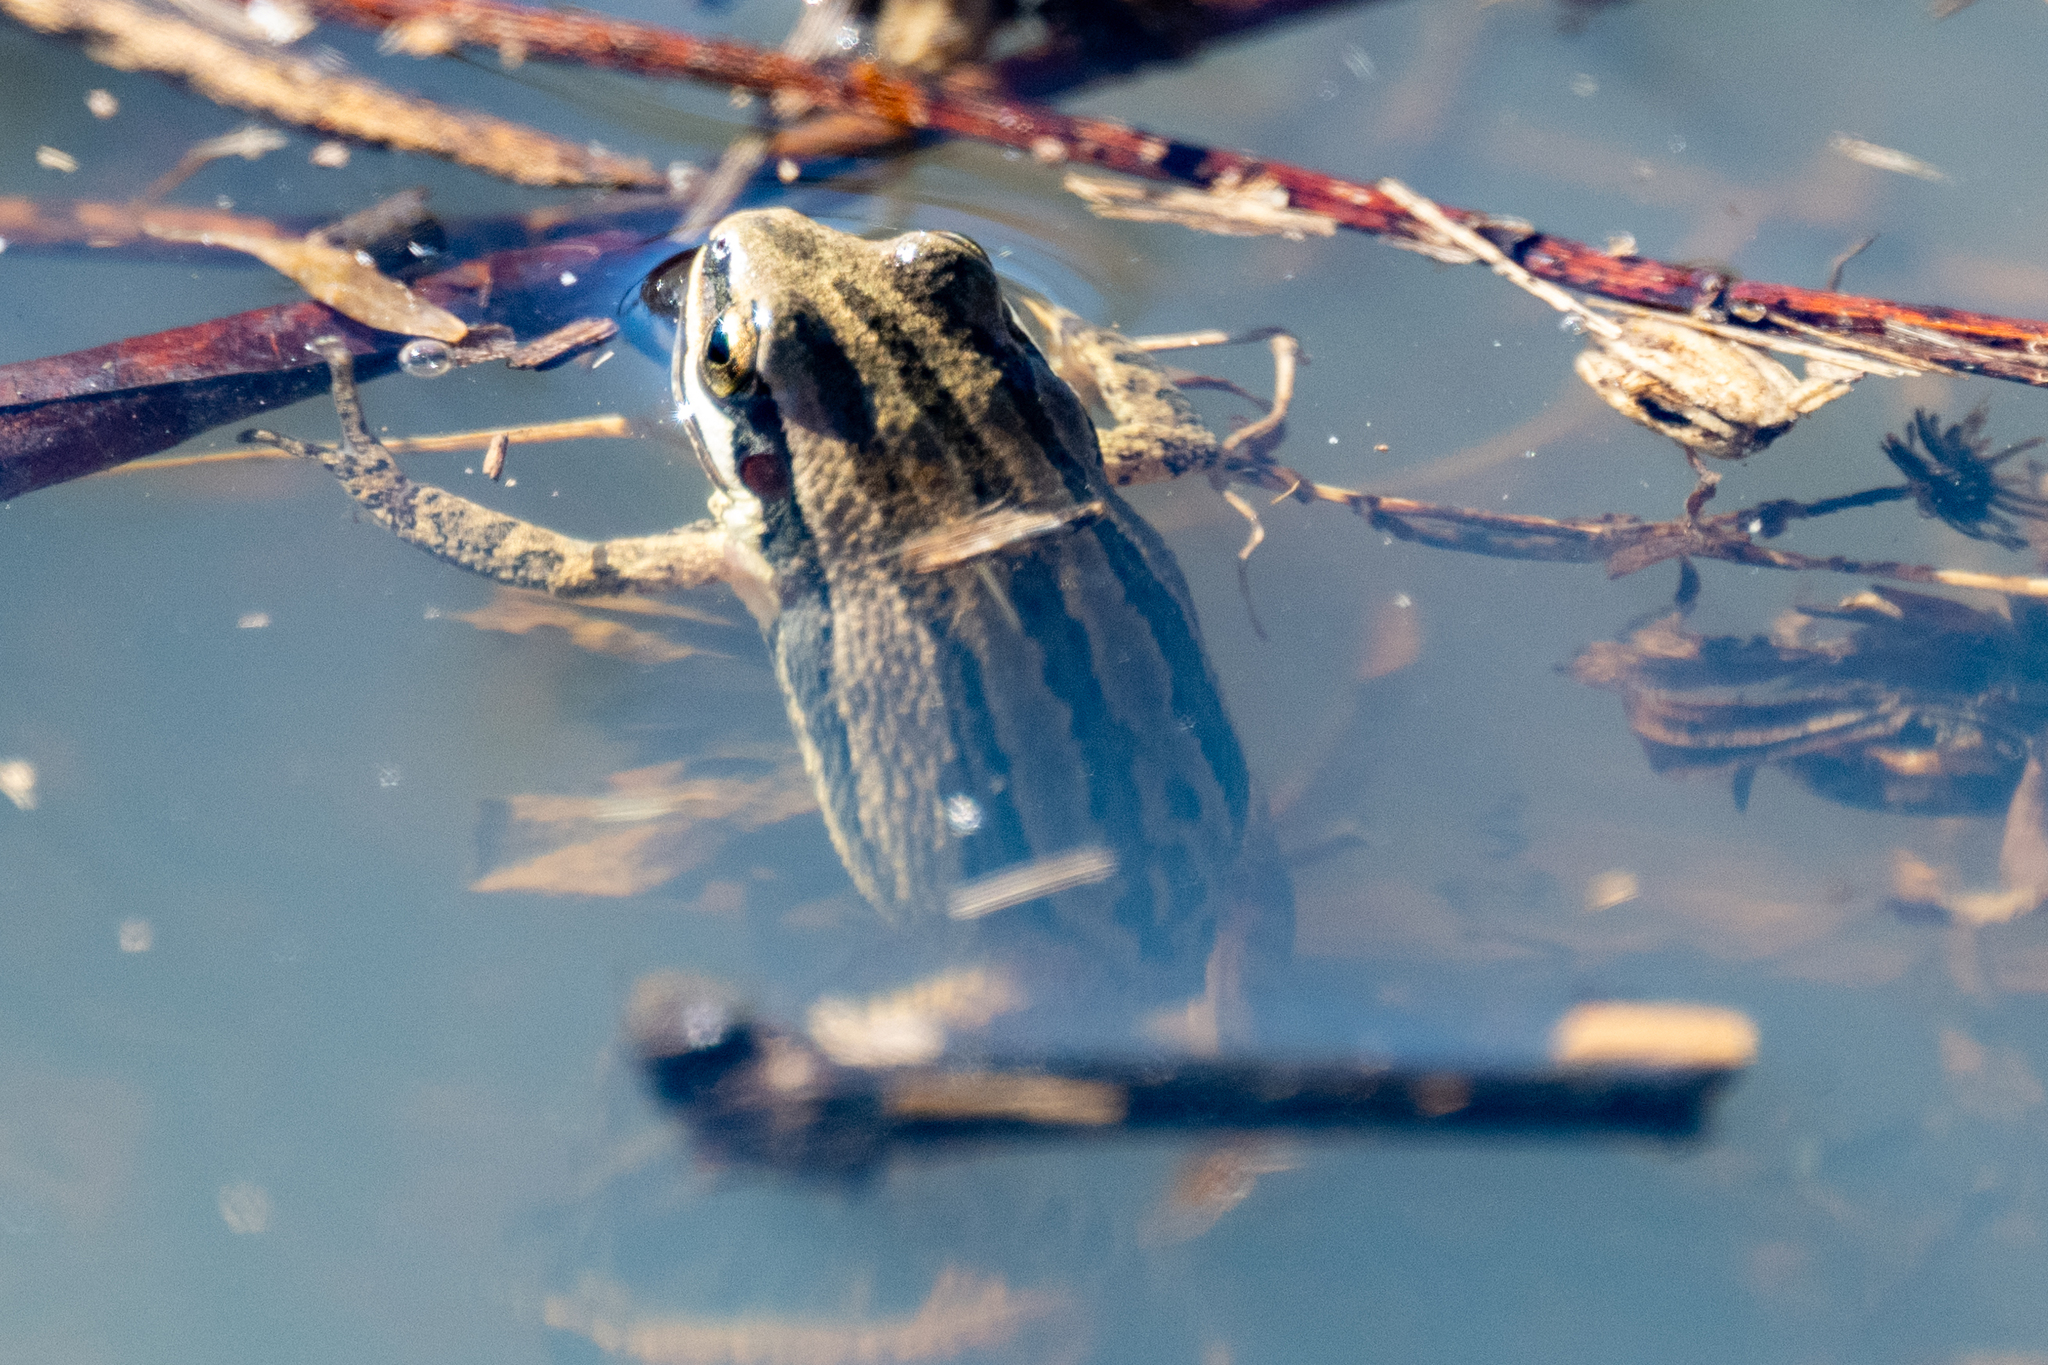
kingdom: Animalia
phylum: Chordata
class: Amphibia
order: Anura
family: Hylidae
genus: Pseudacris
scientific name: Pseudacris fouquettei
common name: Cajun chorus frog
